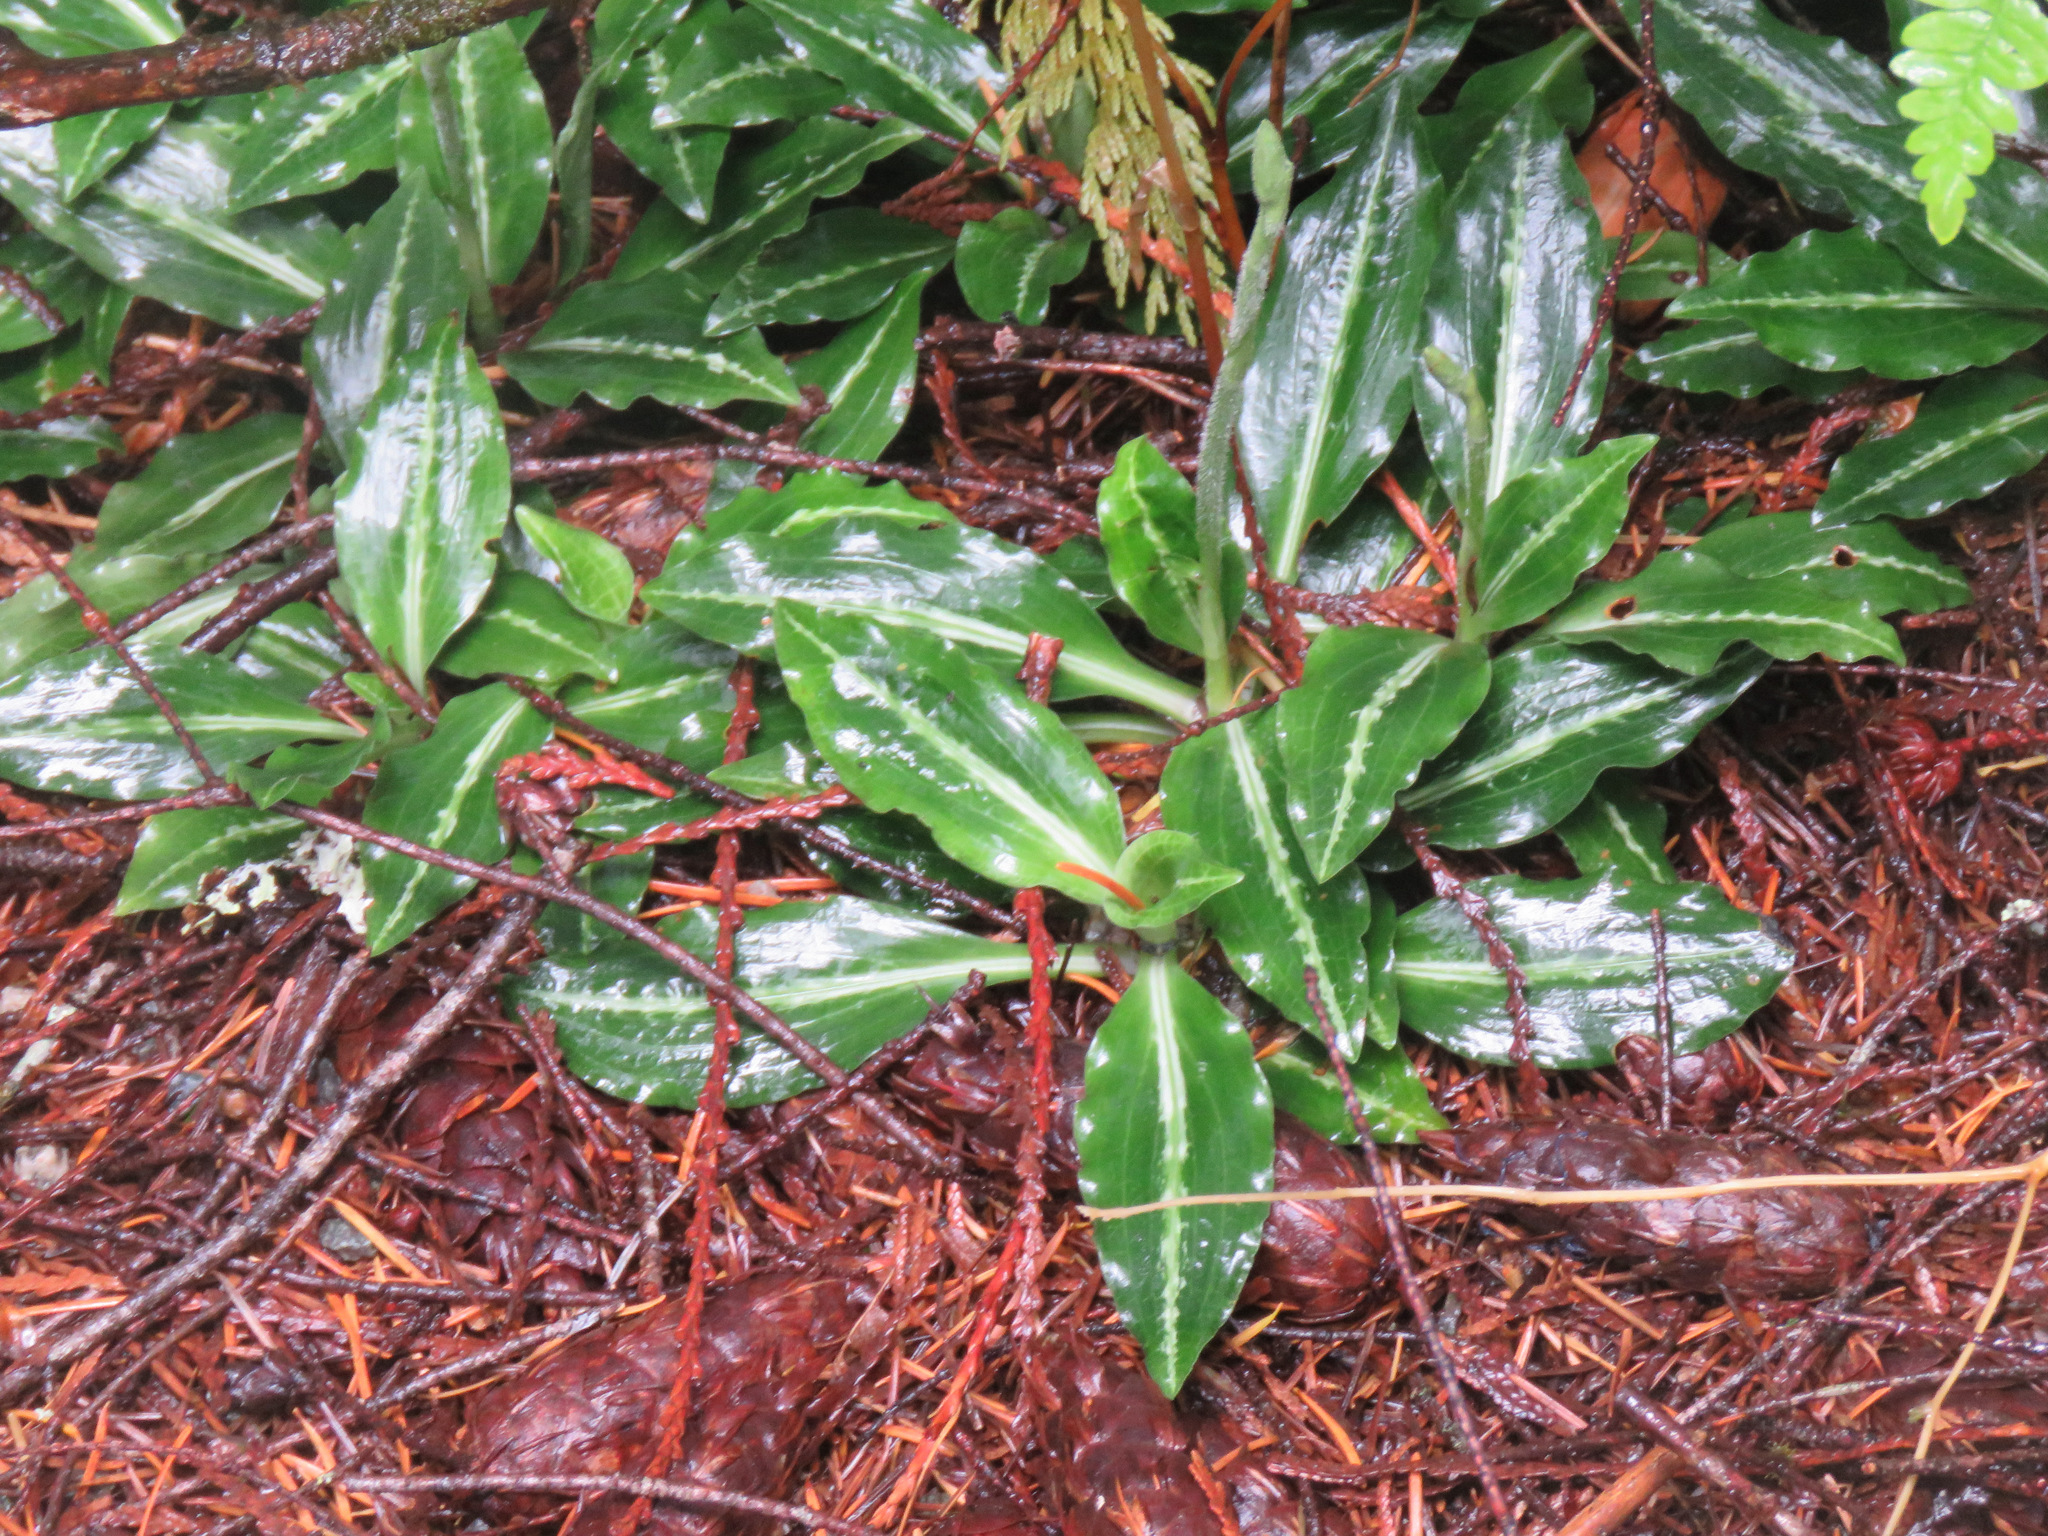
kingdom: Plantae
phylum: Tracheophyta
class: Liliopsida
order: Asparagales
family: Orchidaceae
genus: Goodyera
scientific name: Goodyera oblongifolia
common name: Giant rattlesnake-plantain
